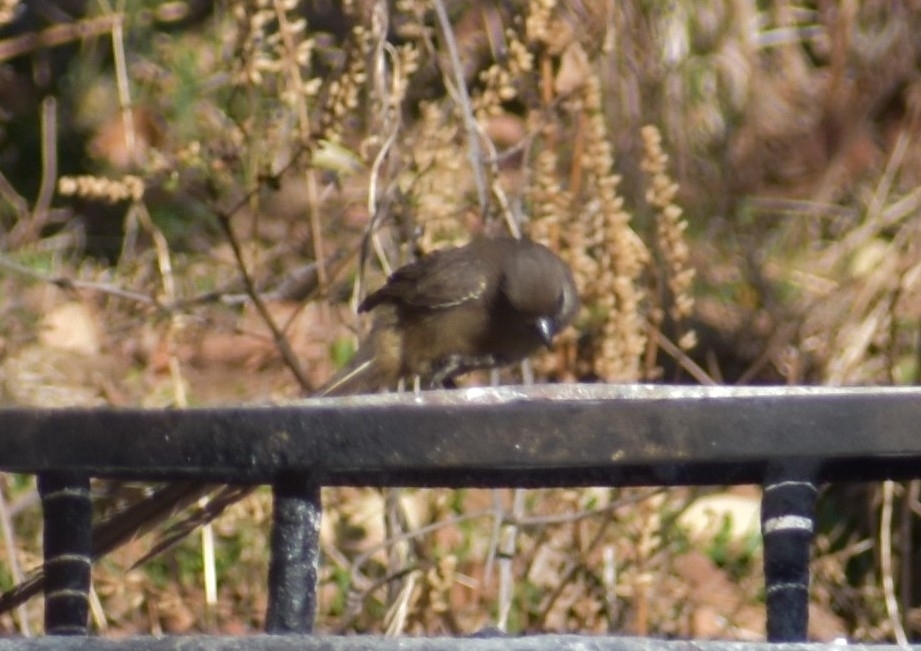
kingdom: Animalia
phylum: Chordata
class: Aves
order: Coliiformes
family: Coliidae
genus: Colius
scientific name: Colius striatus
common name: Speckled mousebird
